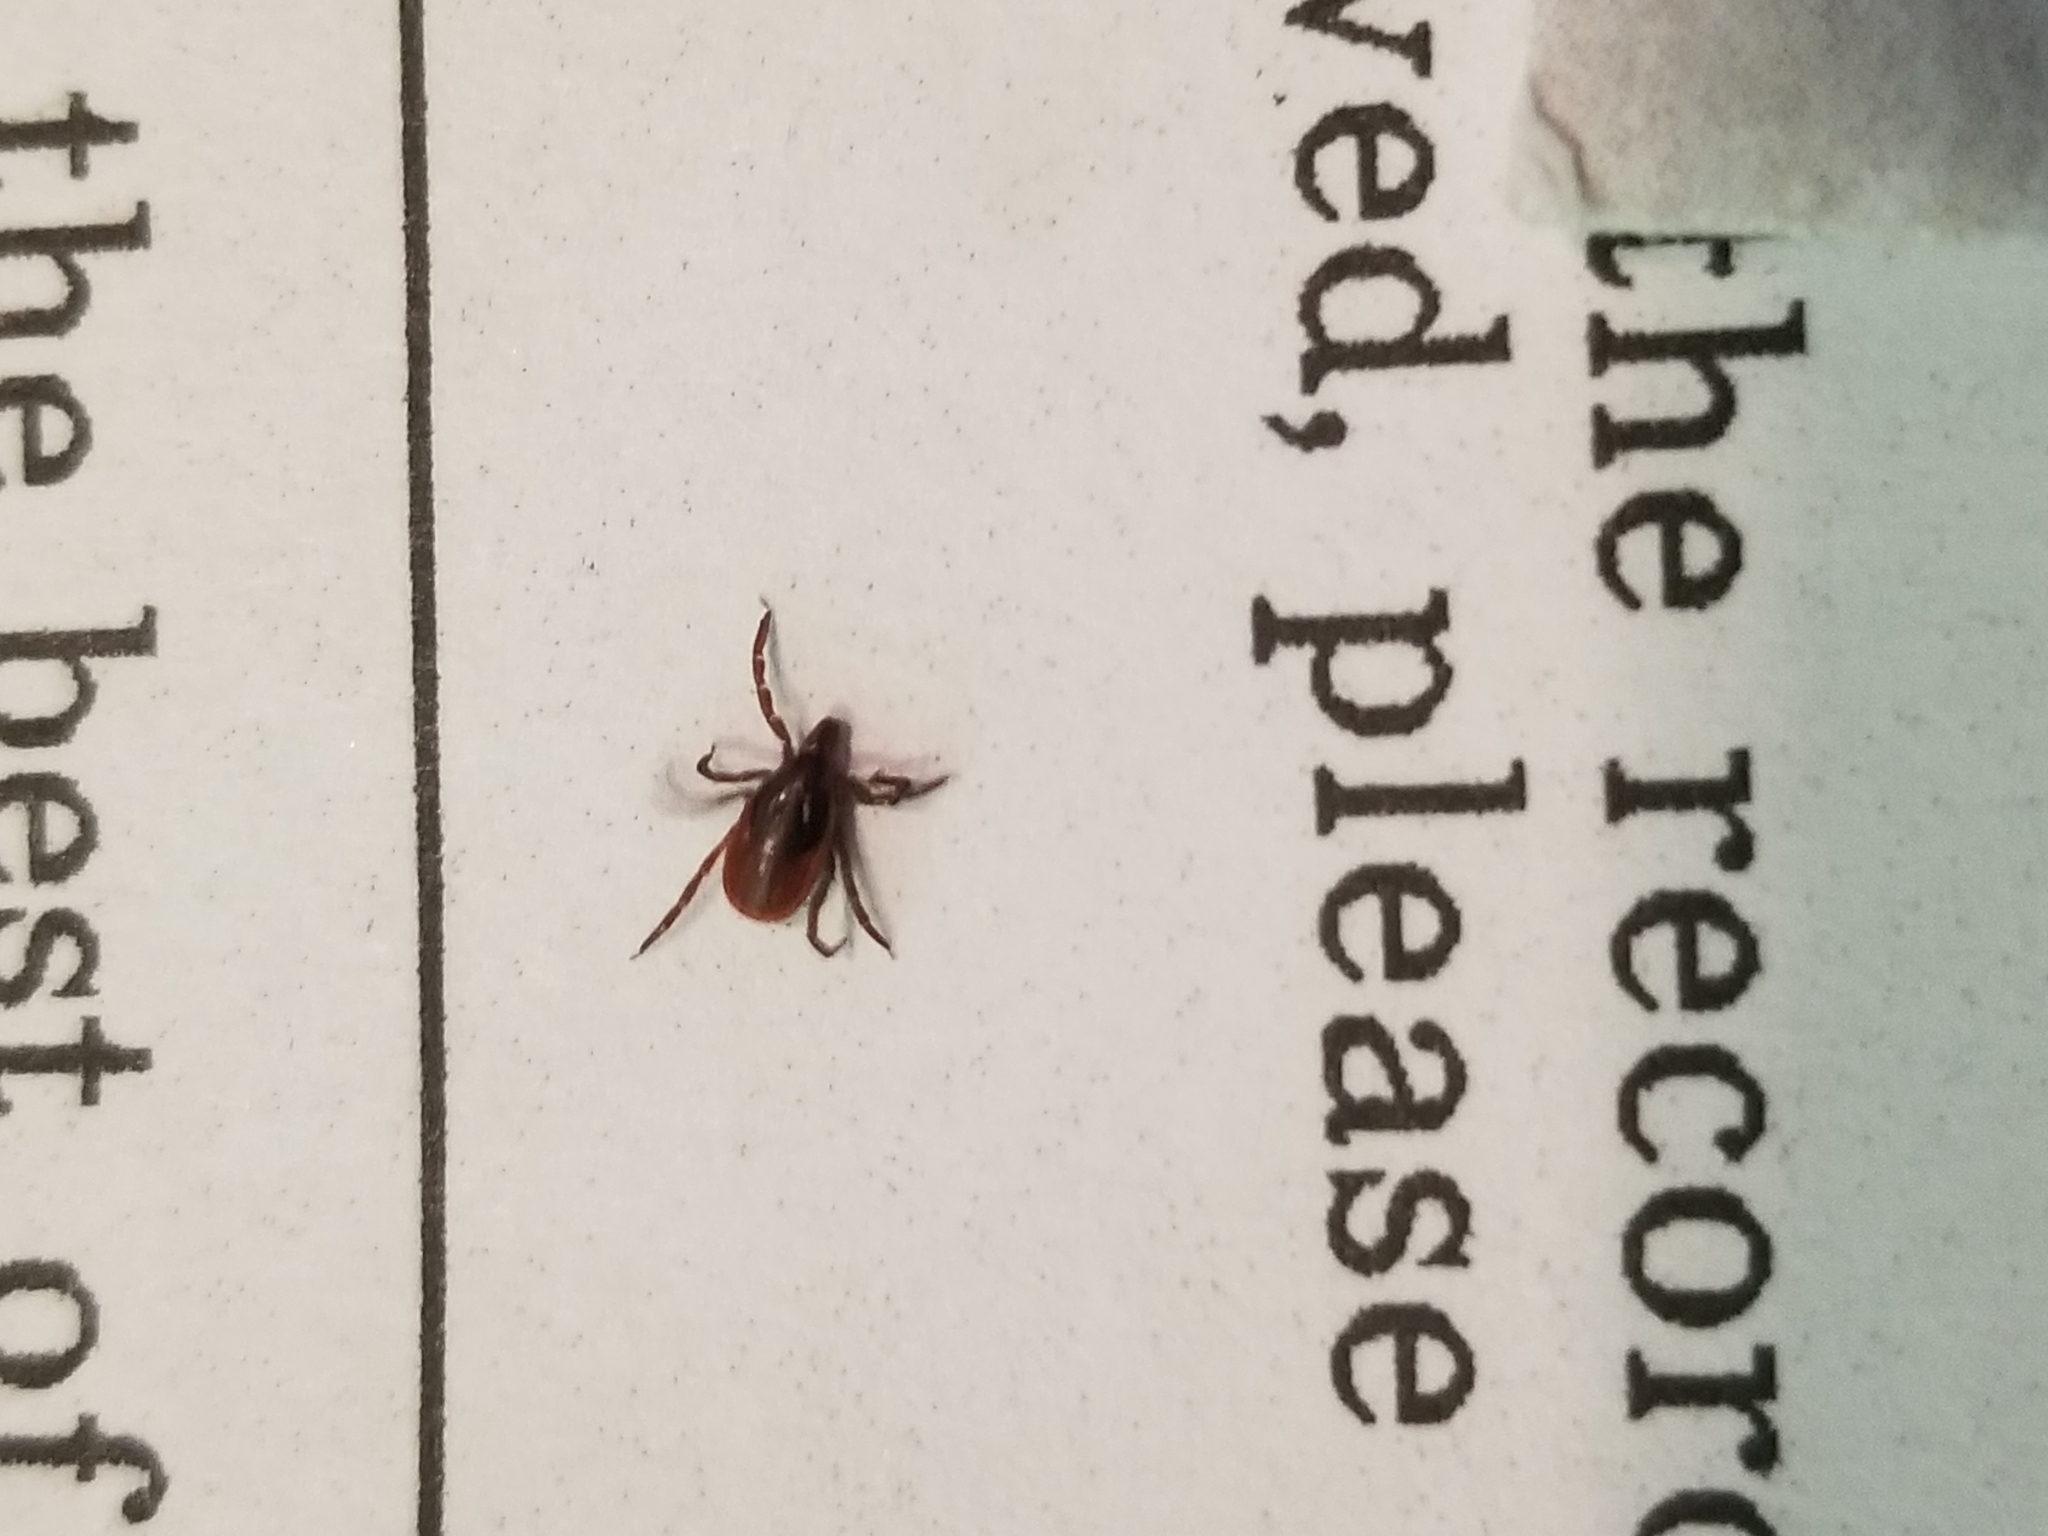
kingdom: Animalia
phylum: Arthropoda
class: Arachnida
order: Ixodida
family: Ixodidae
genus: Ixodes
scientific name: Ixodes scapularis
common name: Black legged tick
